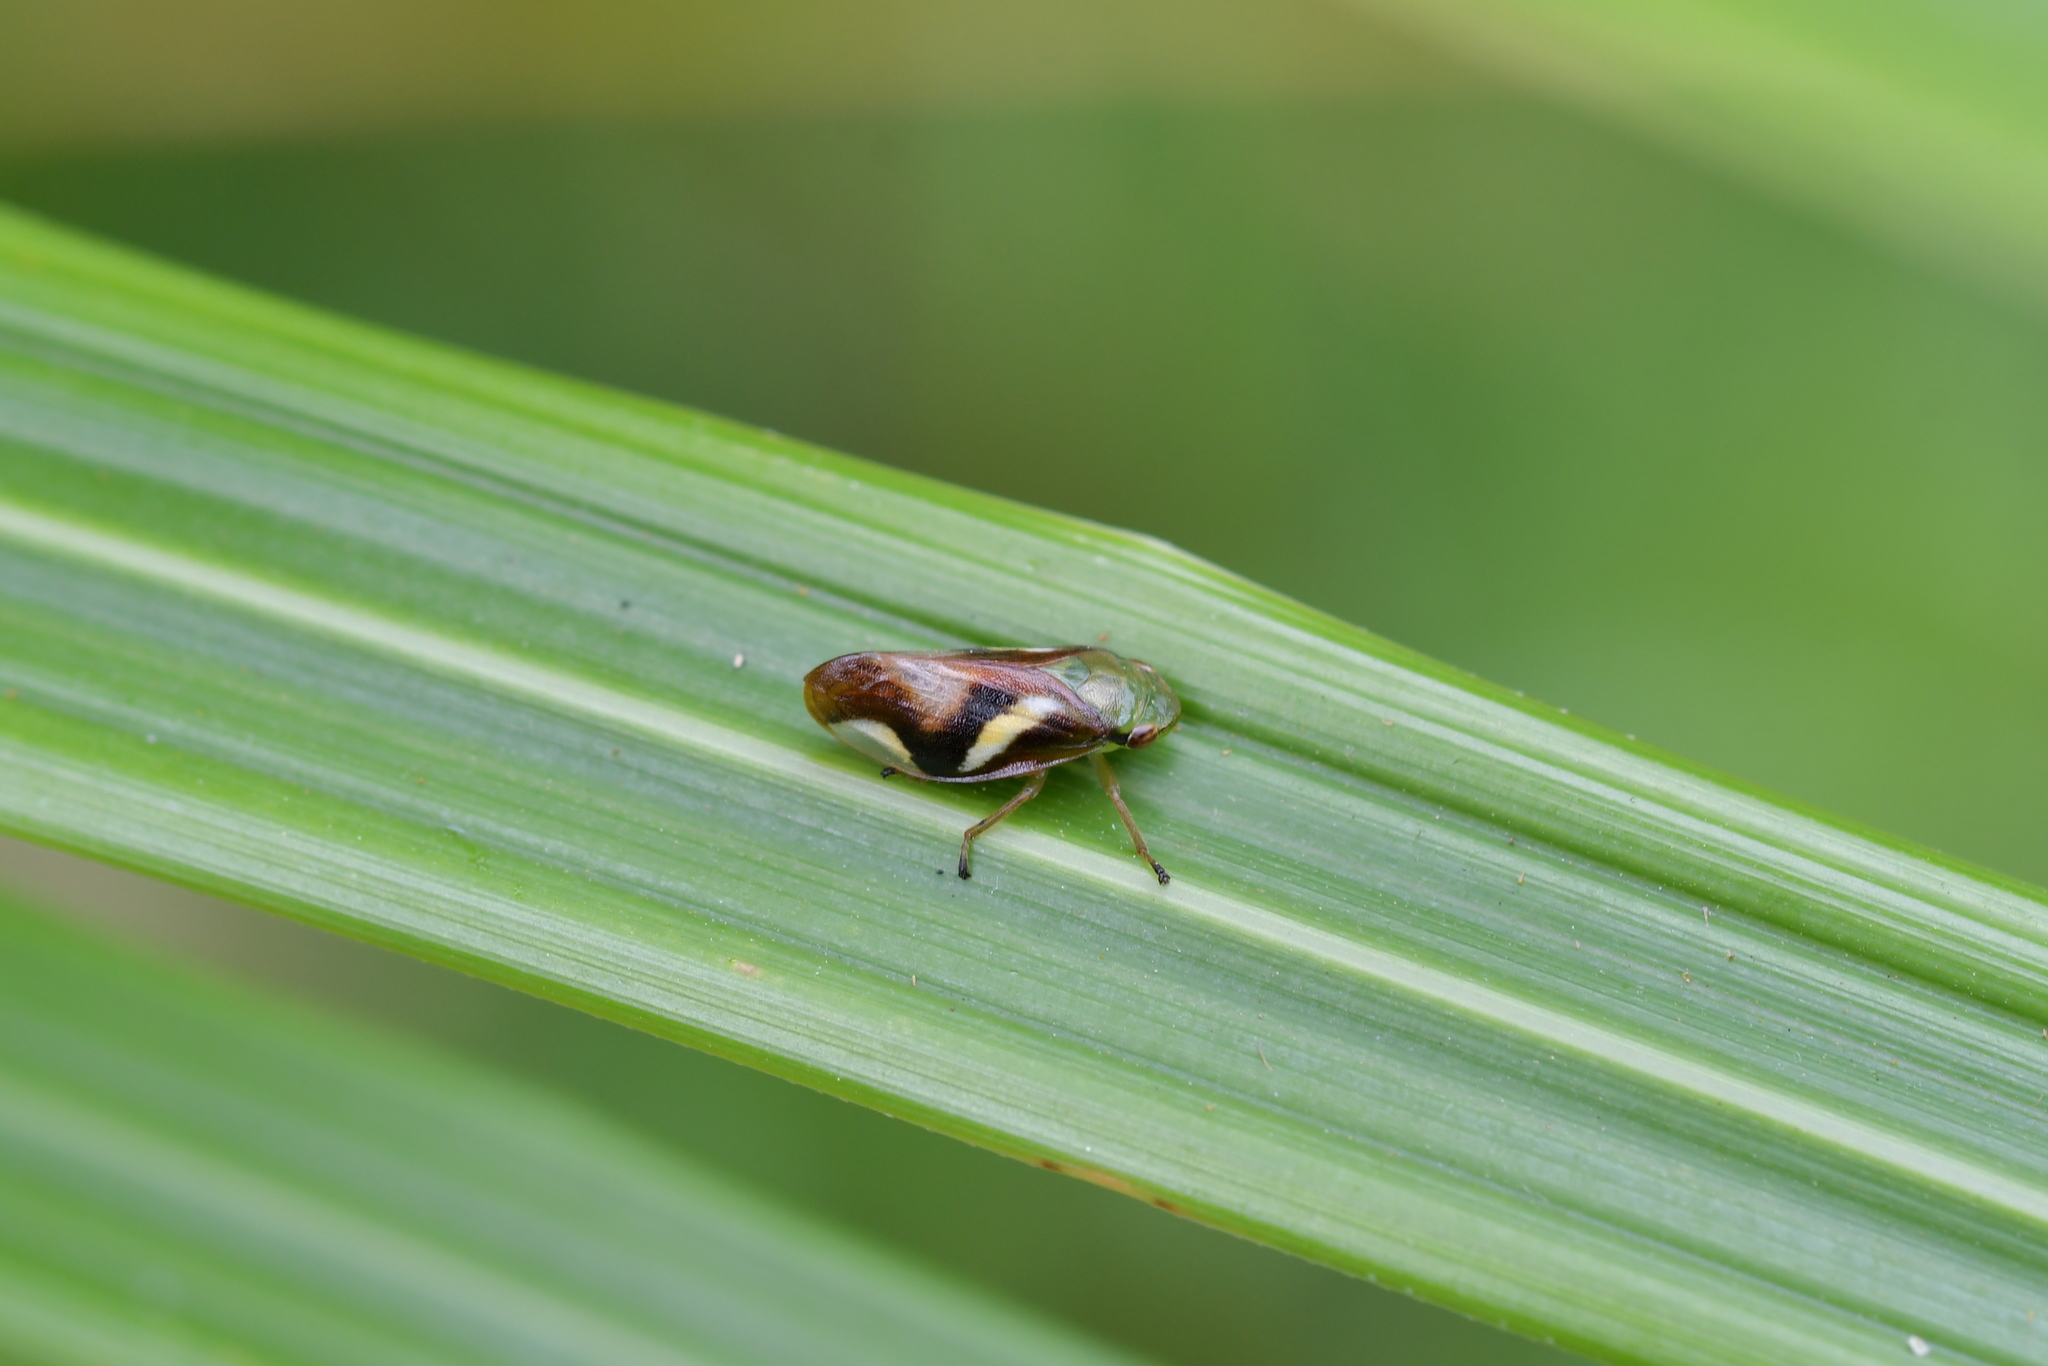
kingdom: Animalia
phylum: Arthropoda
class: Insecta
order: Hemiptera
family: Aphrophoridae
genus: Carystoterpa
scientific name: Carystoterpa fingens
